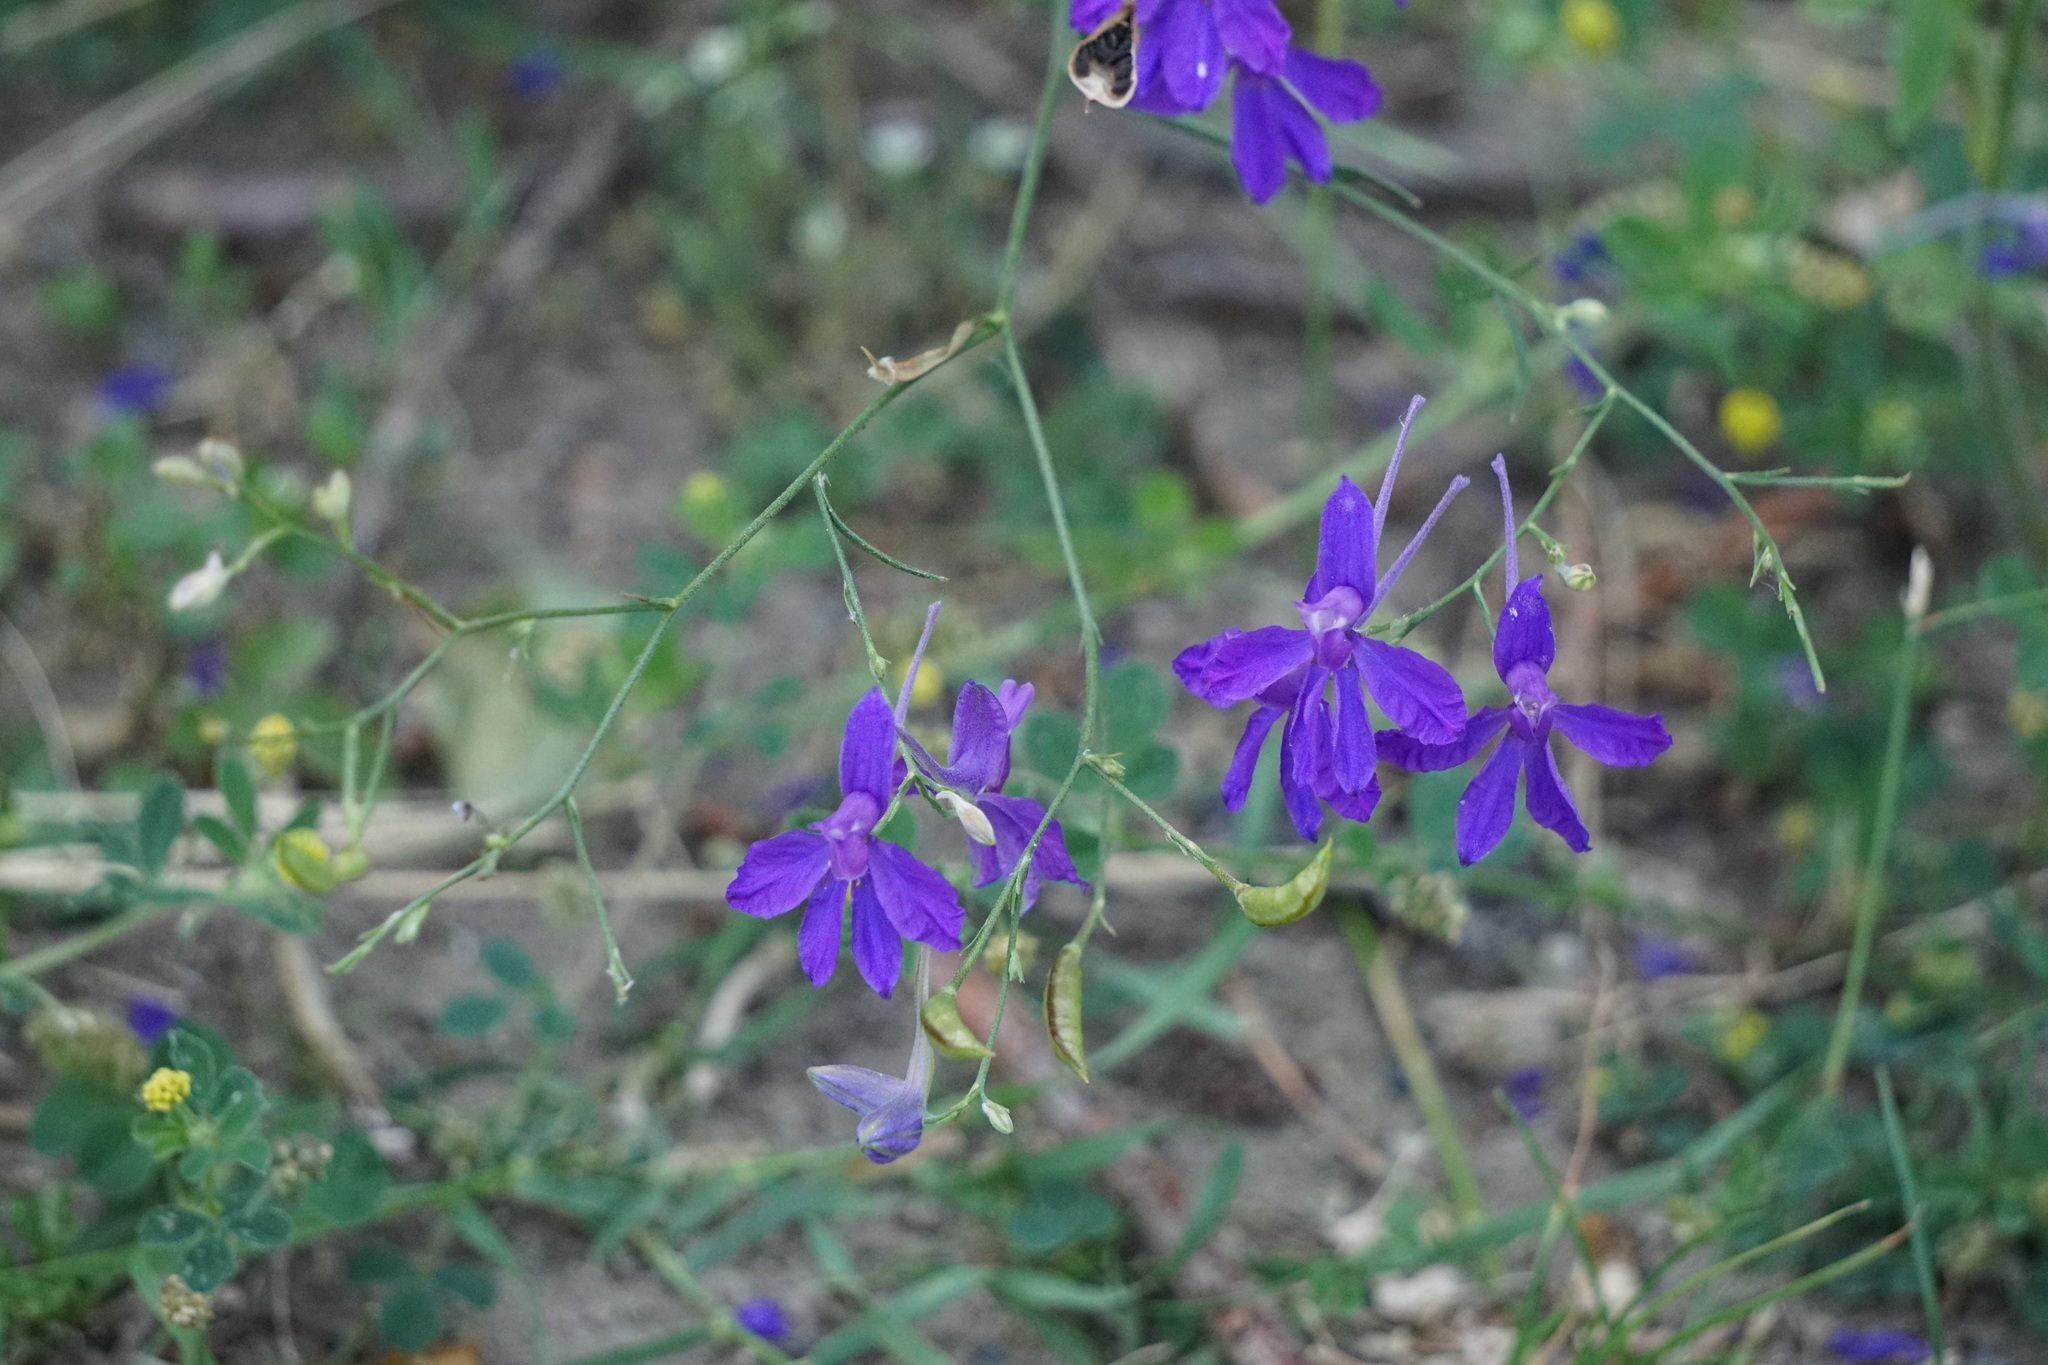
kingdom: Plantae
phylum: Tracheophyta
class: Magnoliopsida
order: Ranunculales
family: Ranunculaceae
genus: Delphinium
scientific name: Delphinium consolida
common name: Branching larkspur
